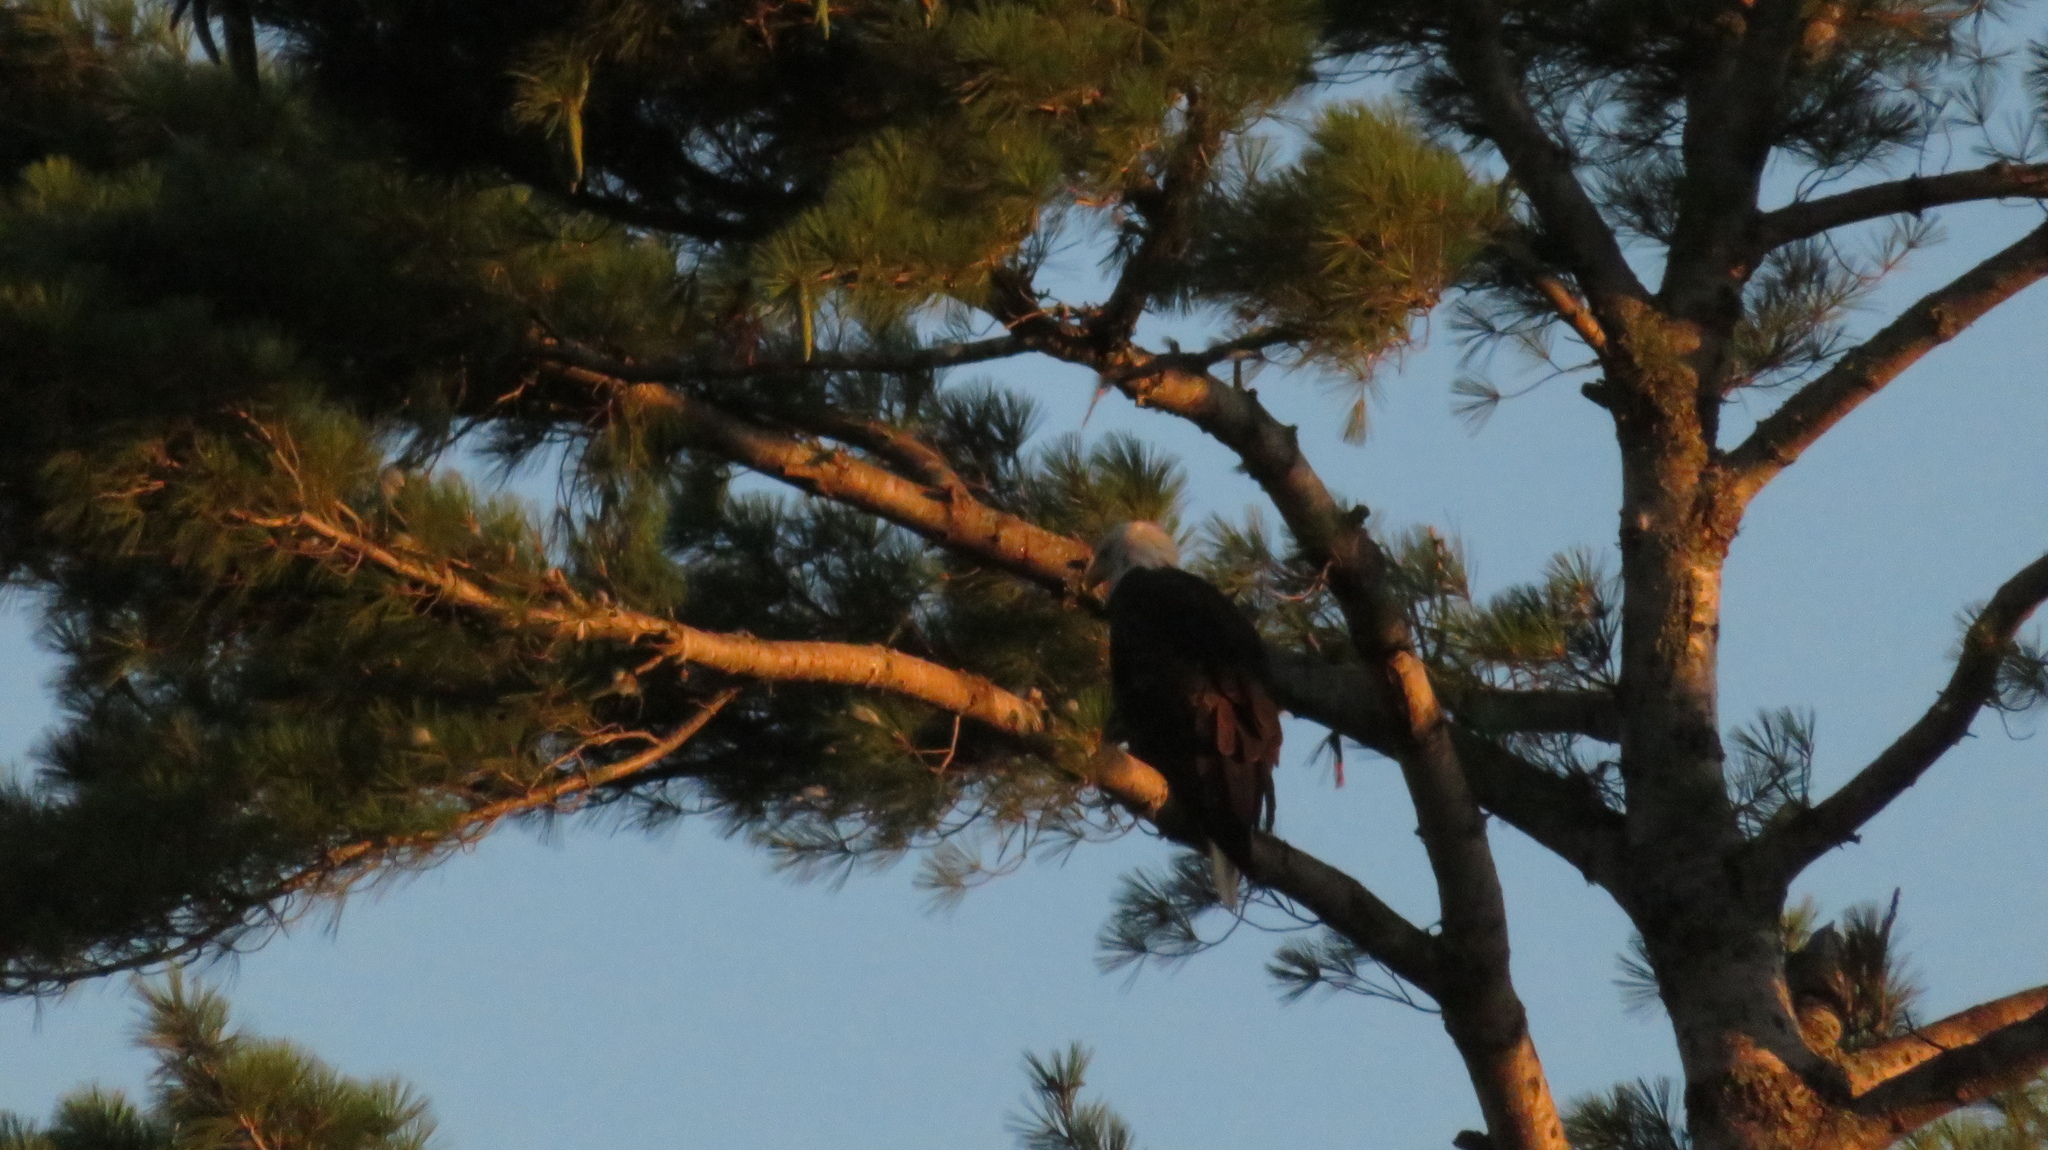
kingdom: Animalia
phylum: Chordata
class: Aves
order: Accipitriformes
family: Accipitridae
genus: Haliaeetus
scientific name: Haliaeetus leucocephalus
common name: Bald eagle
